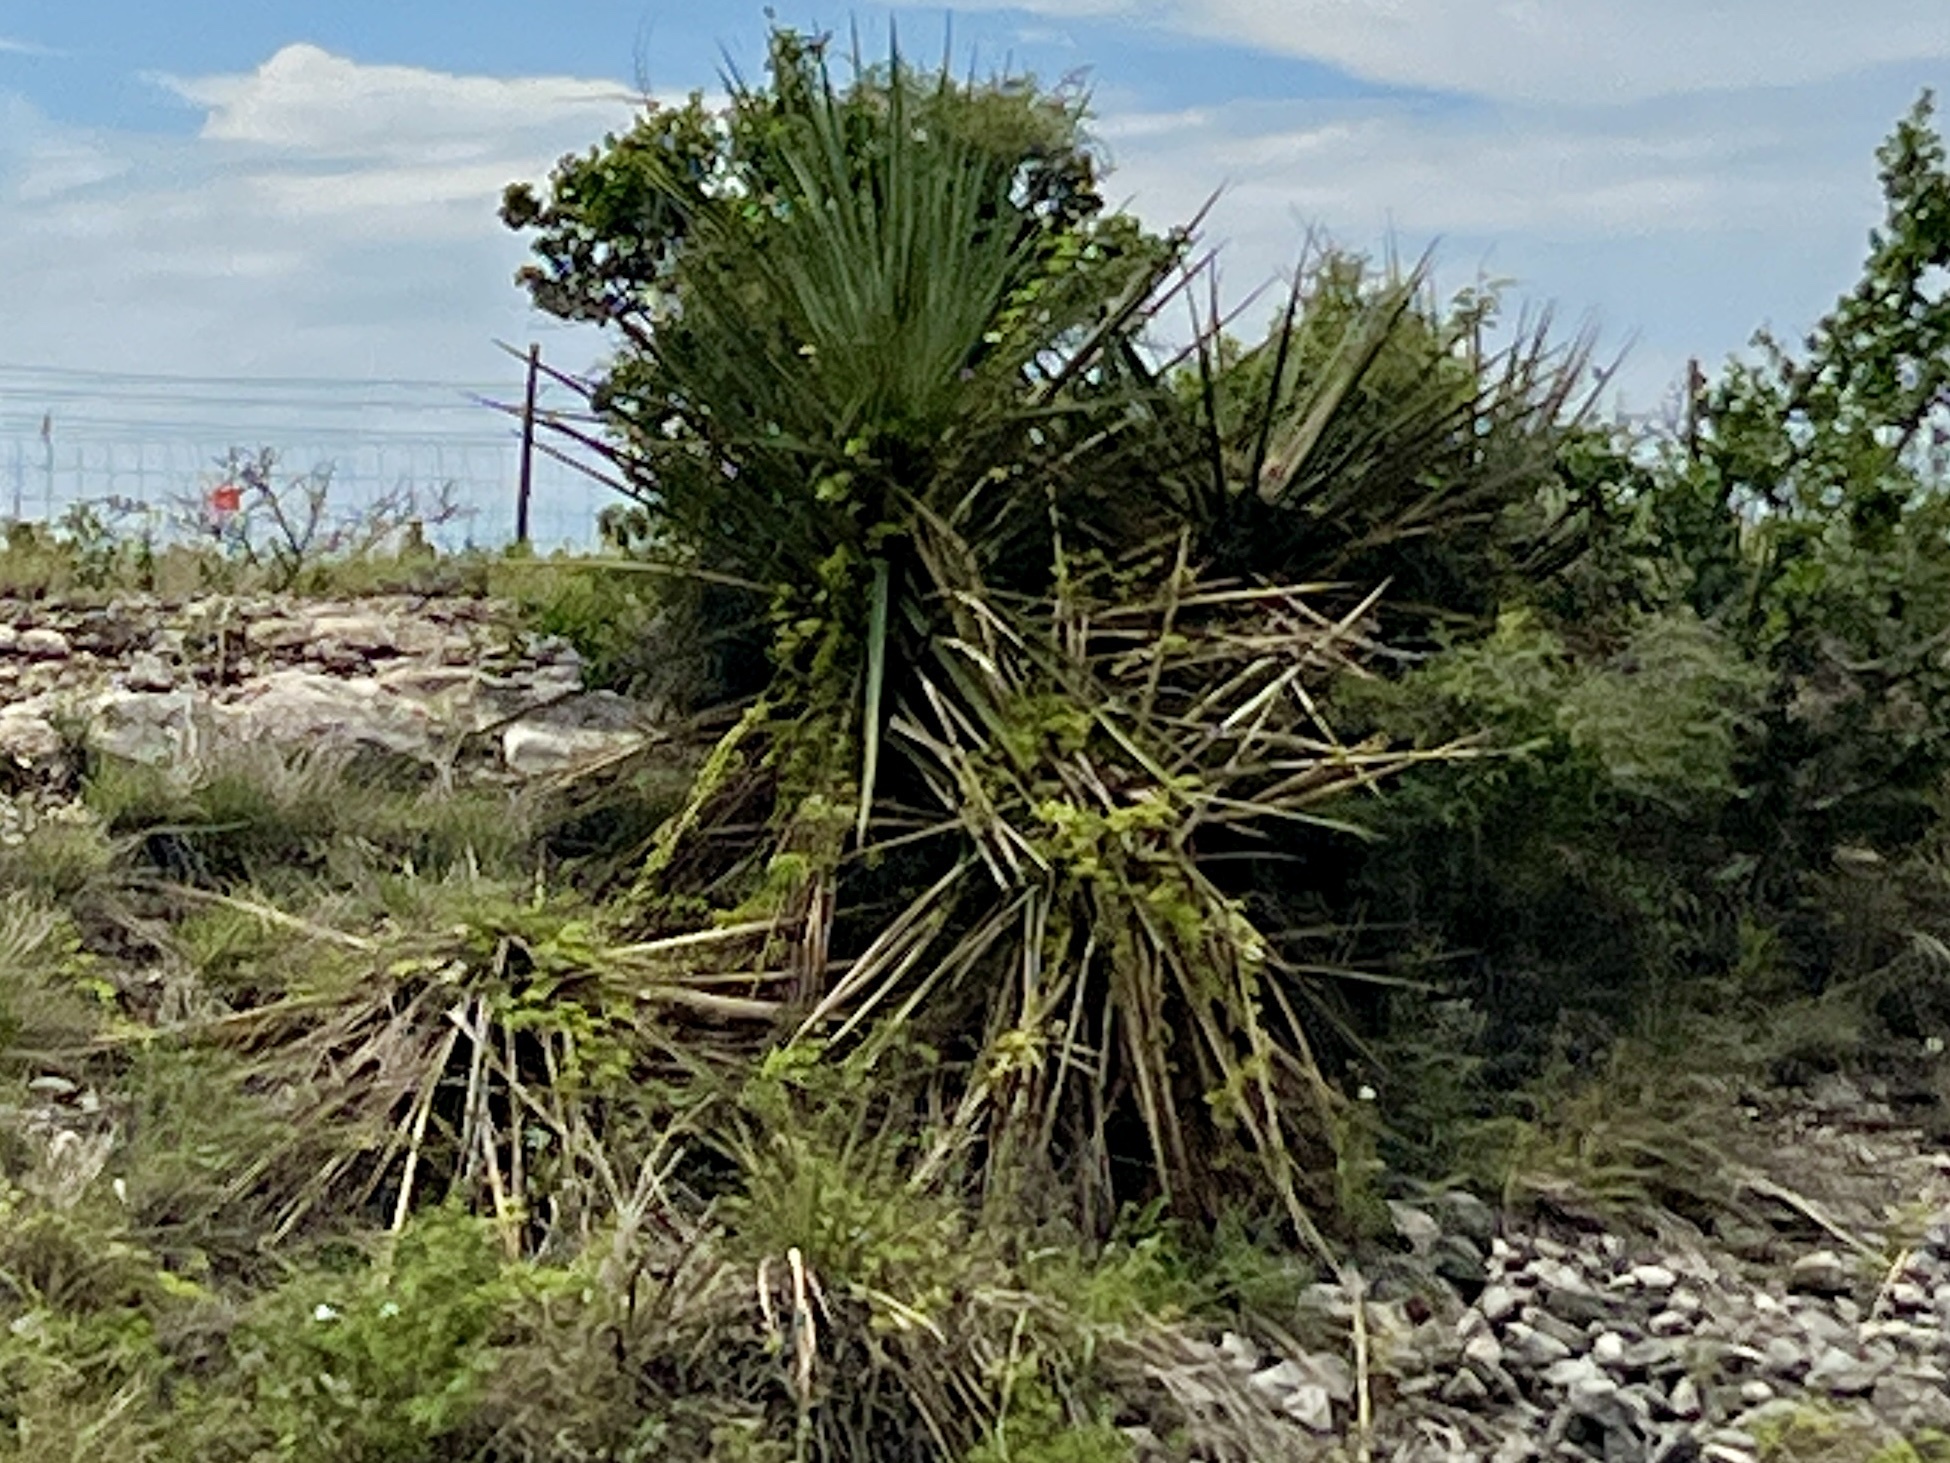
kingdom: Plantae
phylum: Tracheophyta
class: Liliopsida
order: Asparagales
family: Asparagaceae
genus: Yucca
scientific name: Yucca treculiana
